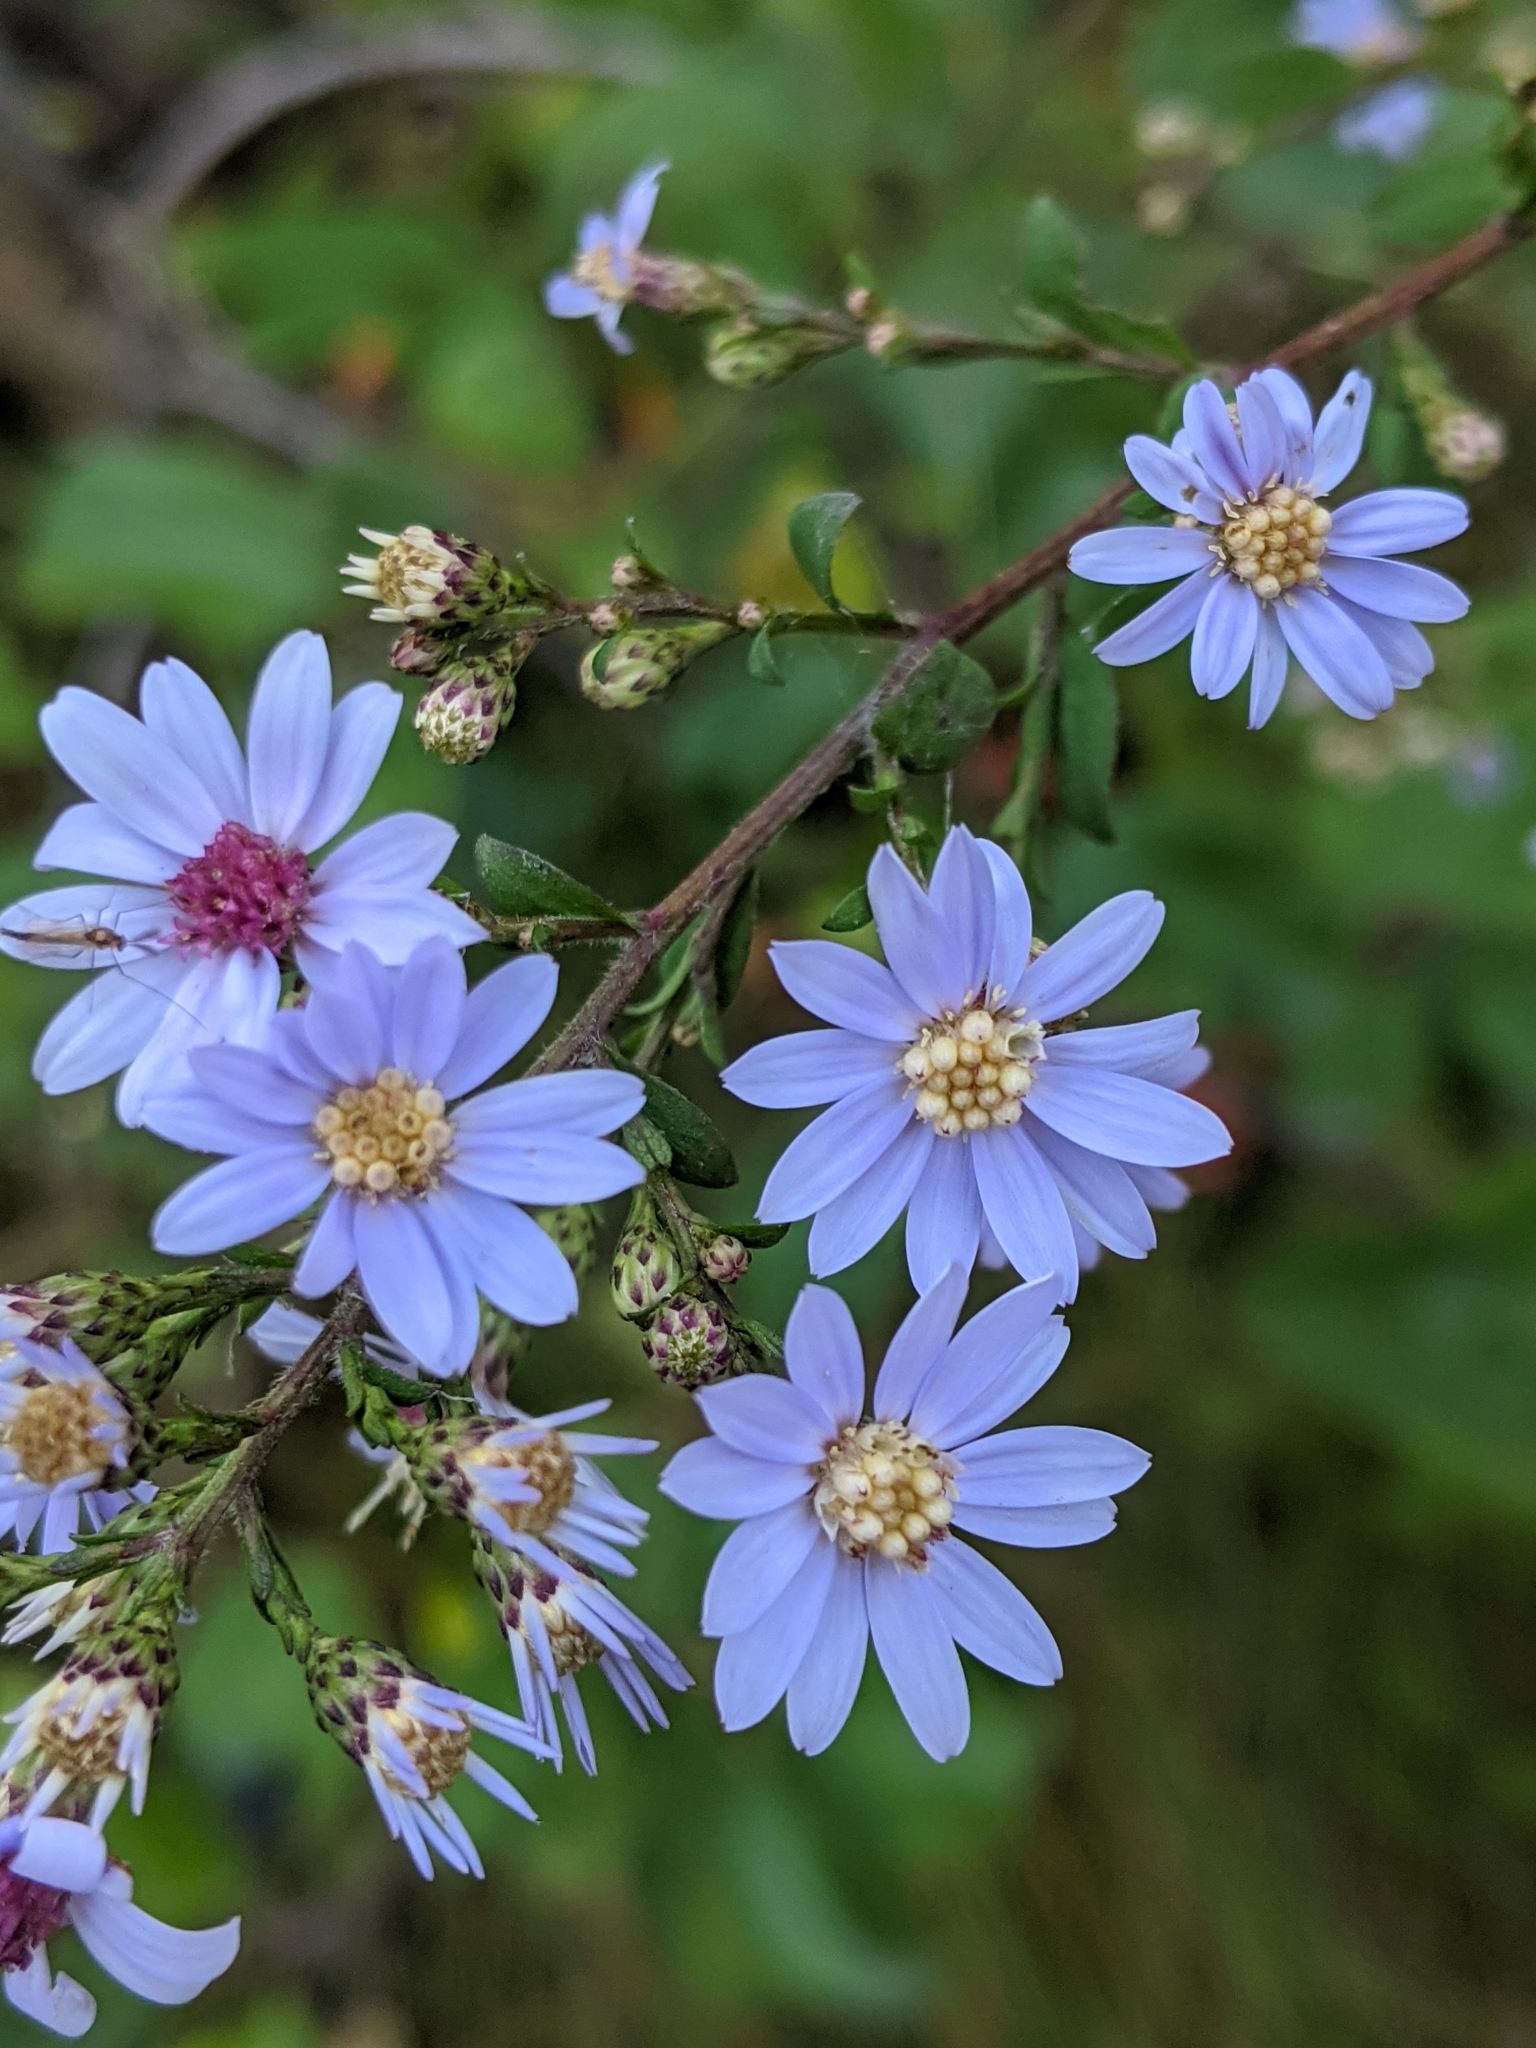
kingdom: Plantae
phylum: Tracheophyta
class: Magnoliopsida
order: Asterales
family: Asteraceae
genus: Symphyotrichum
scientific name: Symphyotrichum cordifolium
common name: Beeweed
